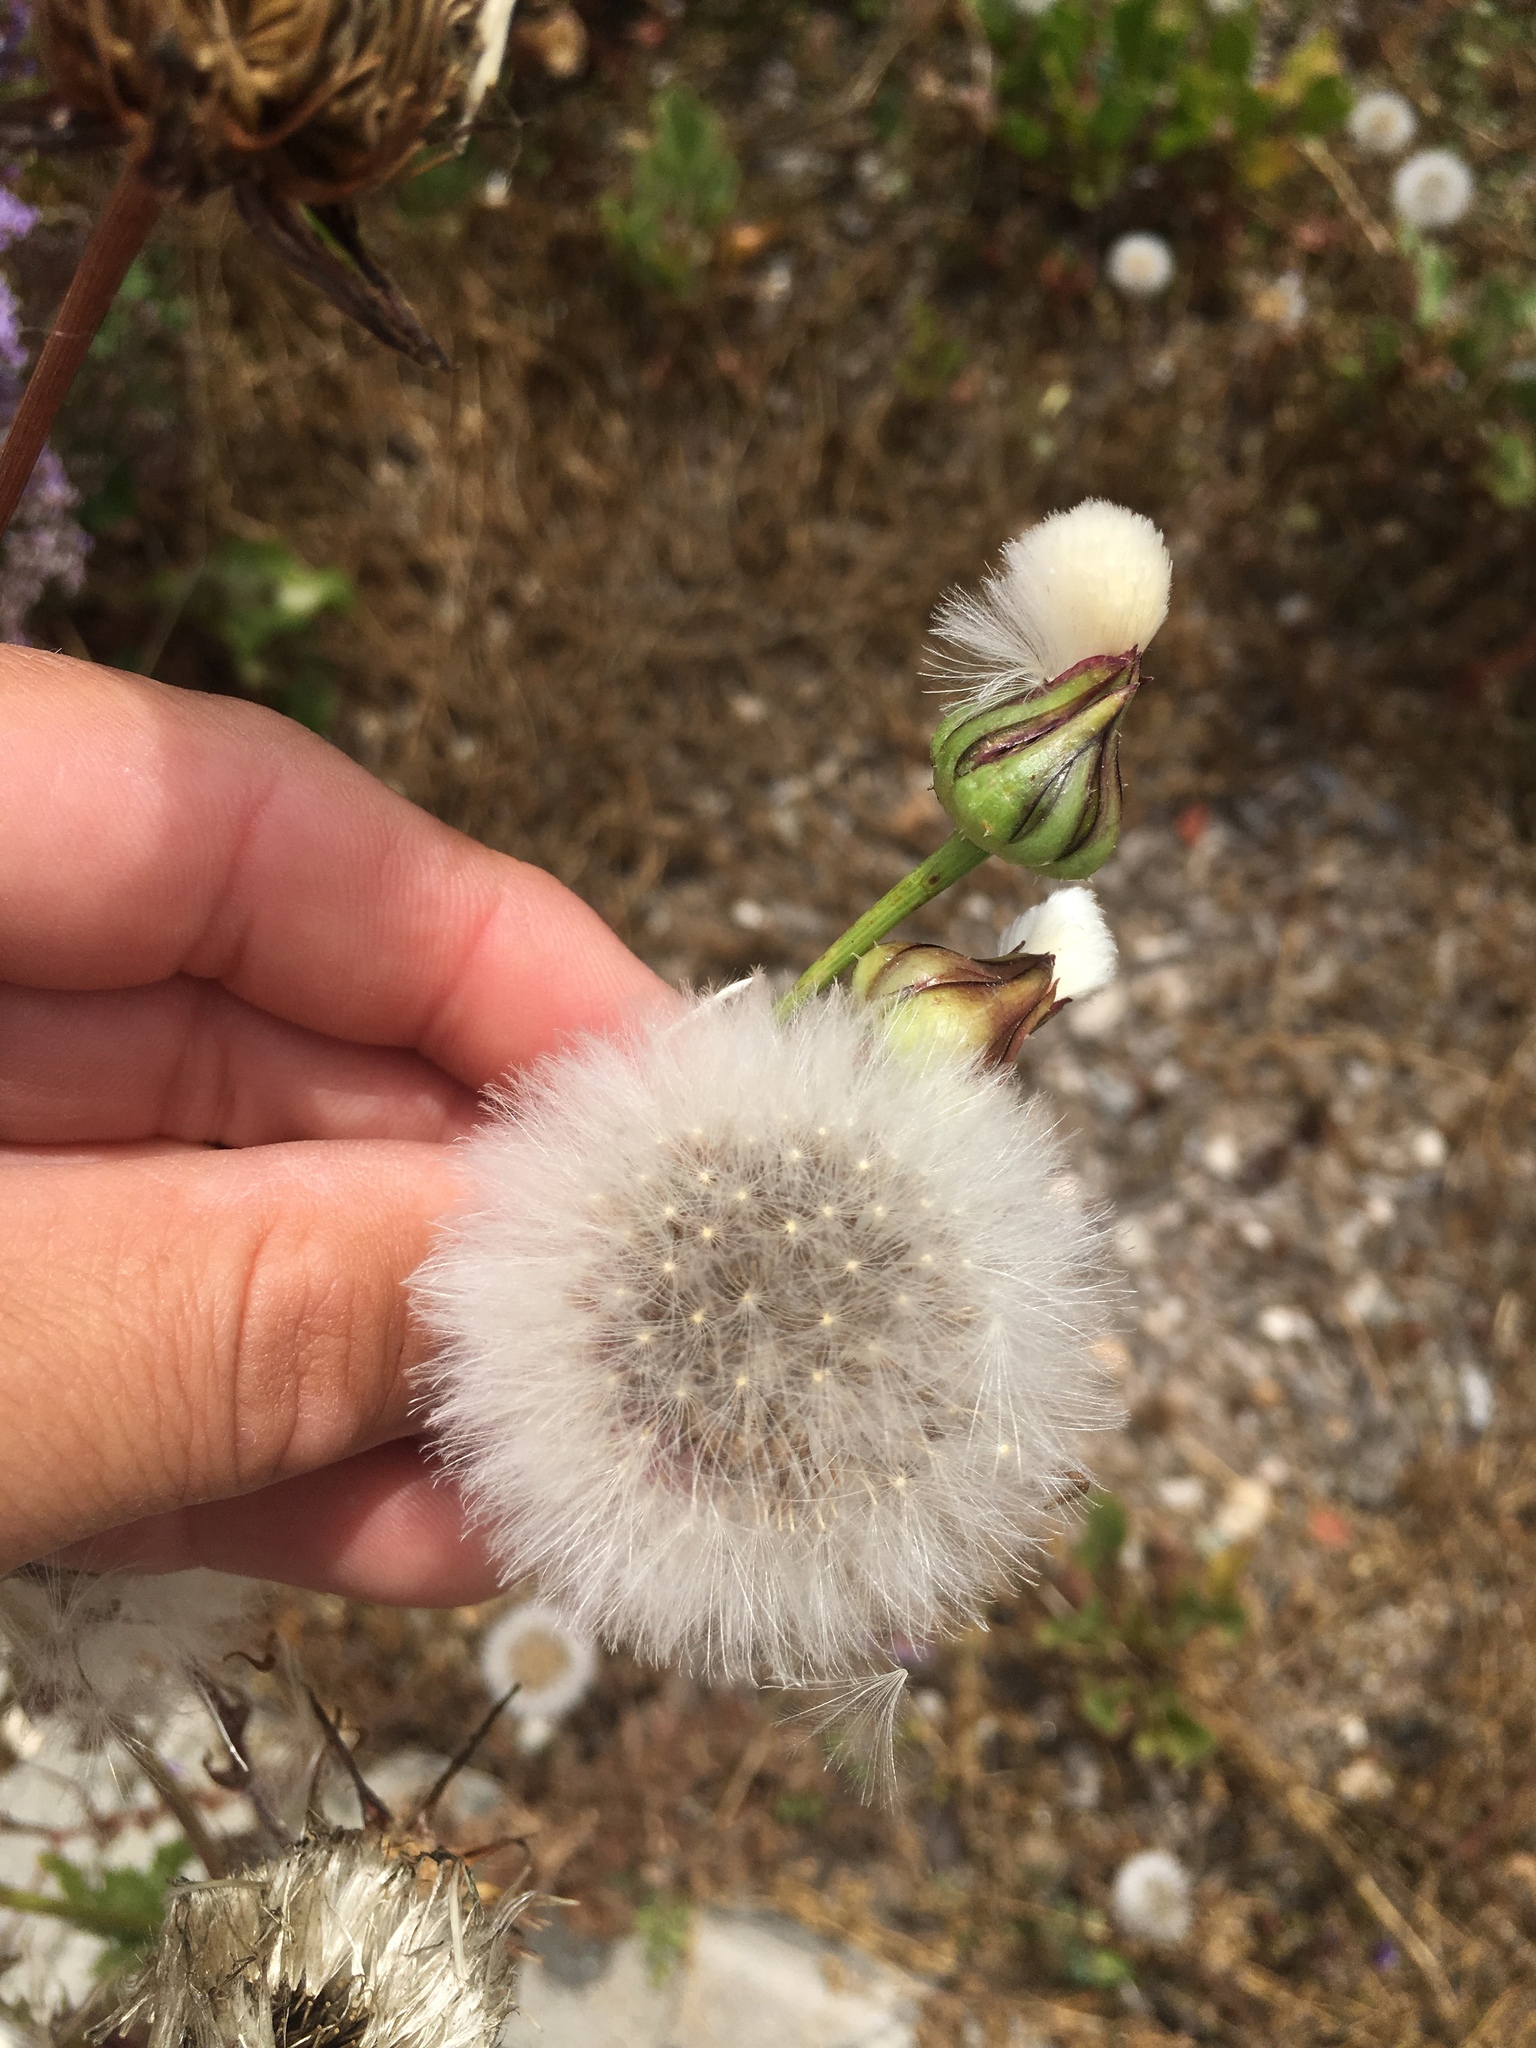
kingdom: Plantae
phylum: Tracheophyta
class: Magnoliopsida
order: Asterales
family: Asteraceae
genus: Urospermum
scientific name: Urospermum picroides
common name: False hawkbit
